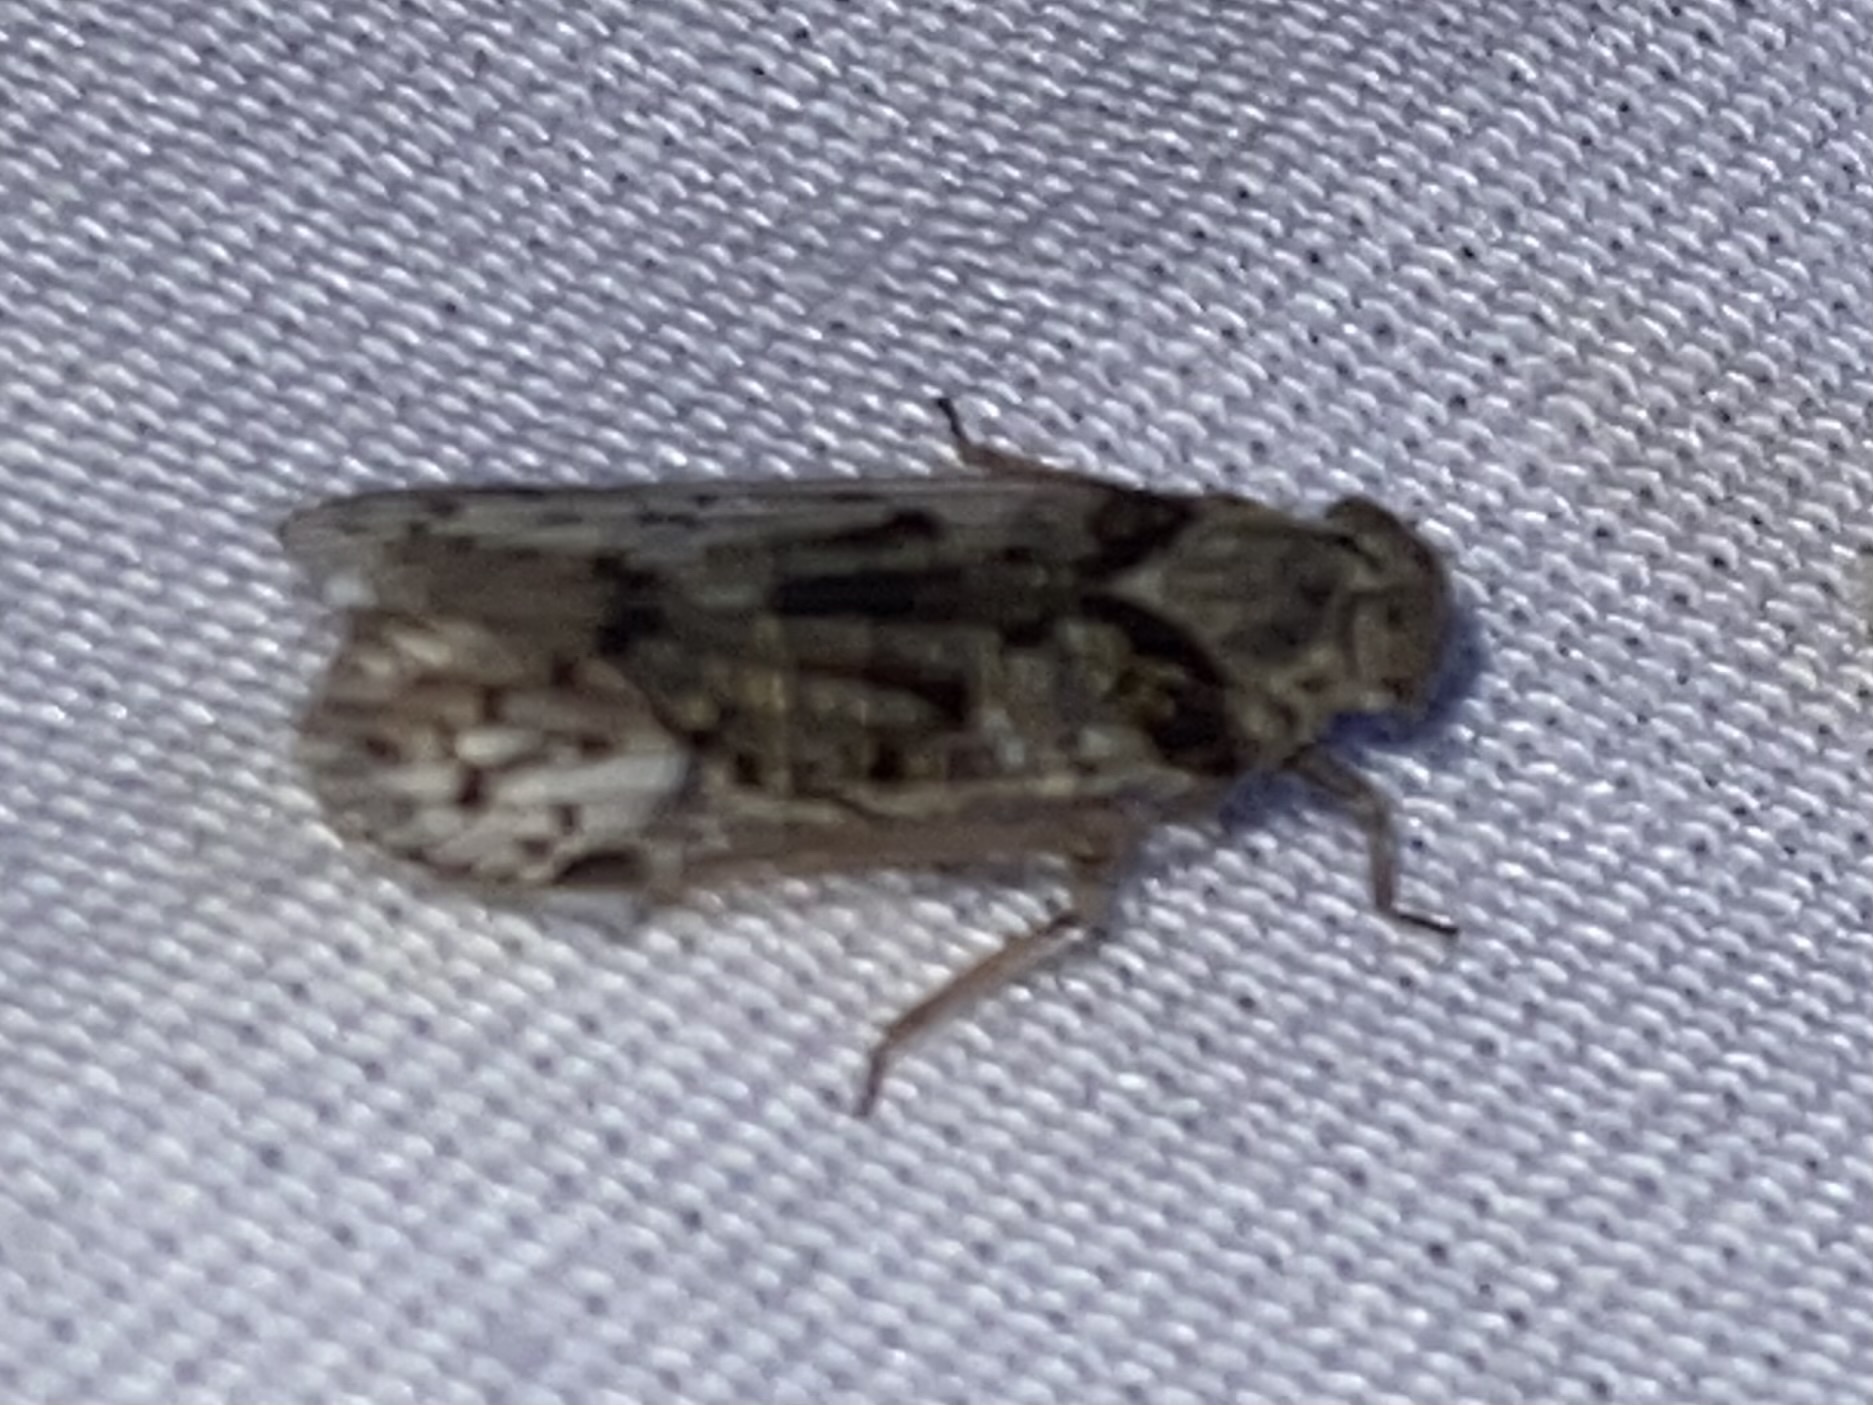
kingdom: Animalia
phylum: Arthropoda
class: Insecta
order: Hemiptera
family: Cixiidae
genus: Melanoliarus
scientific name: Melanoliarus aridus
